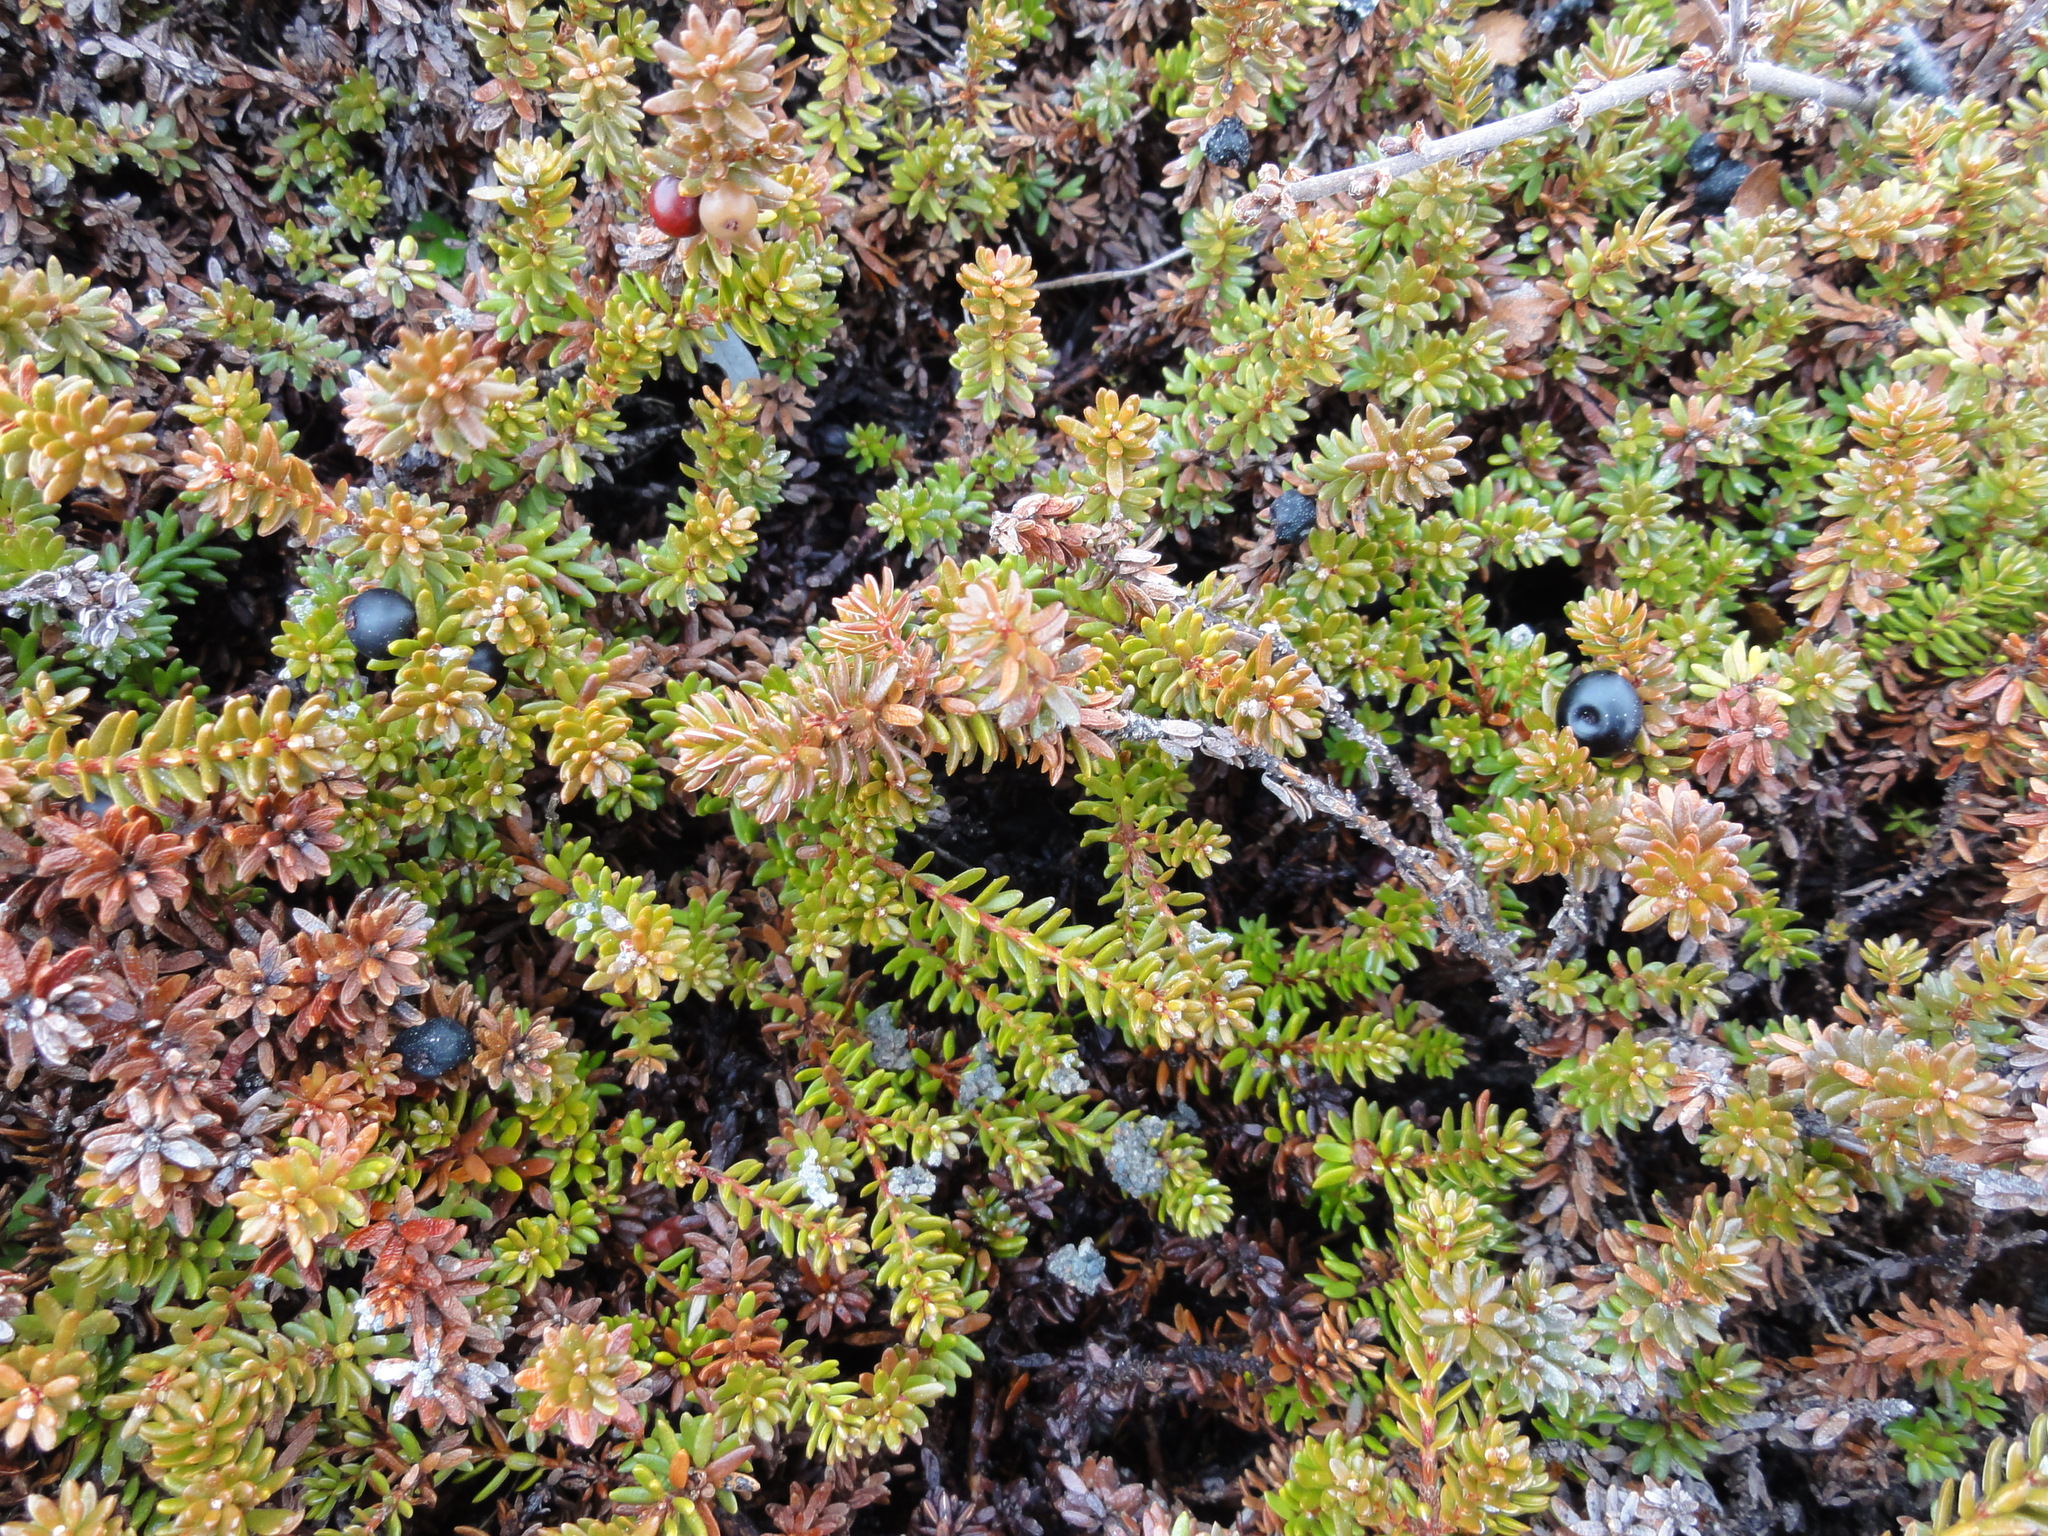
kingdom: Plantae
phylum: Tracheophyta
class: Magnoliopsida
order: Ericales
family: Ericaceae
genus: Empetrum
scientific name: Empetrum nigrum
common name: Black crowberry
